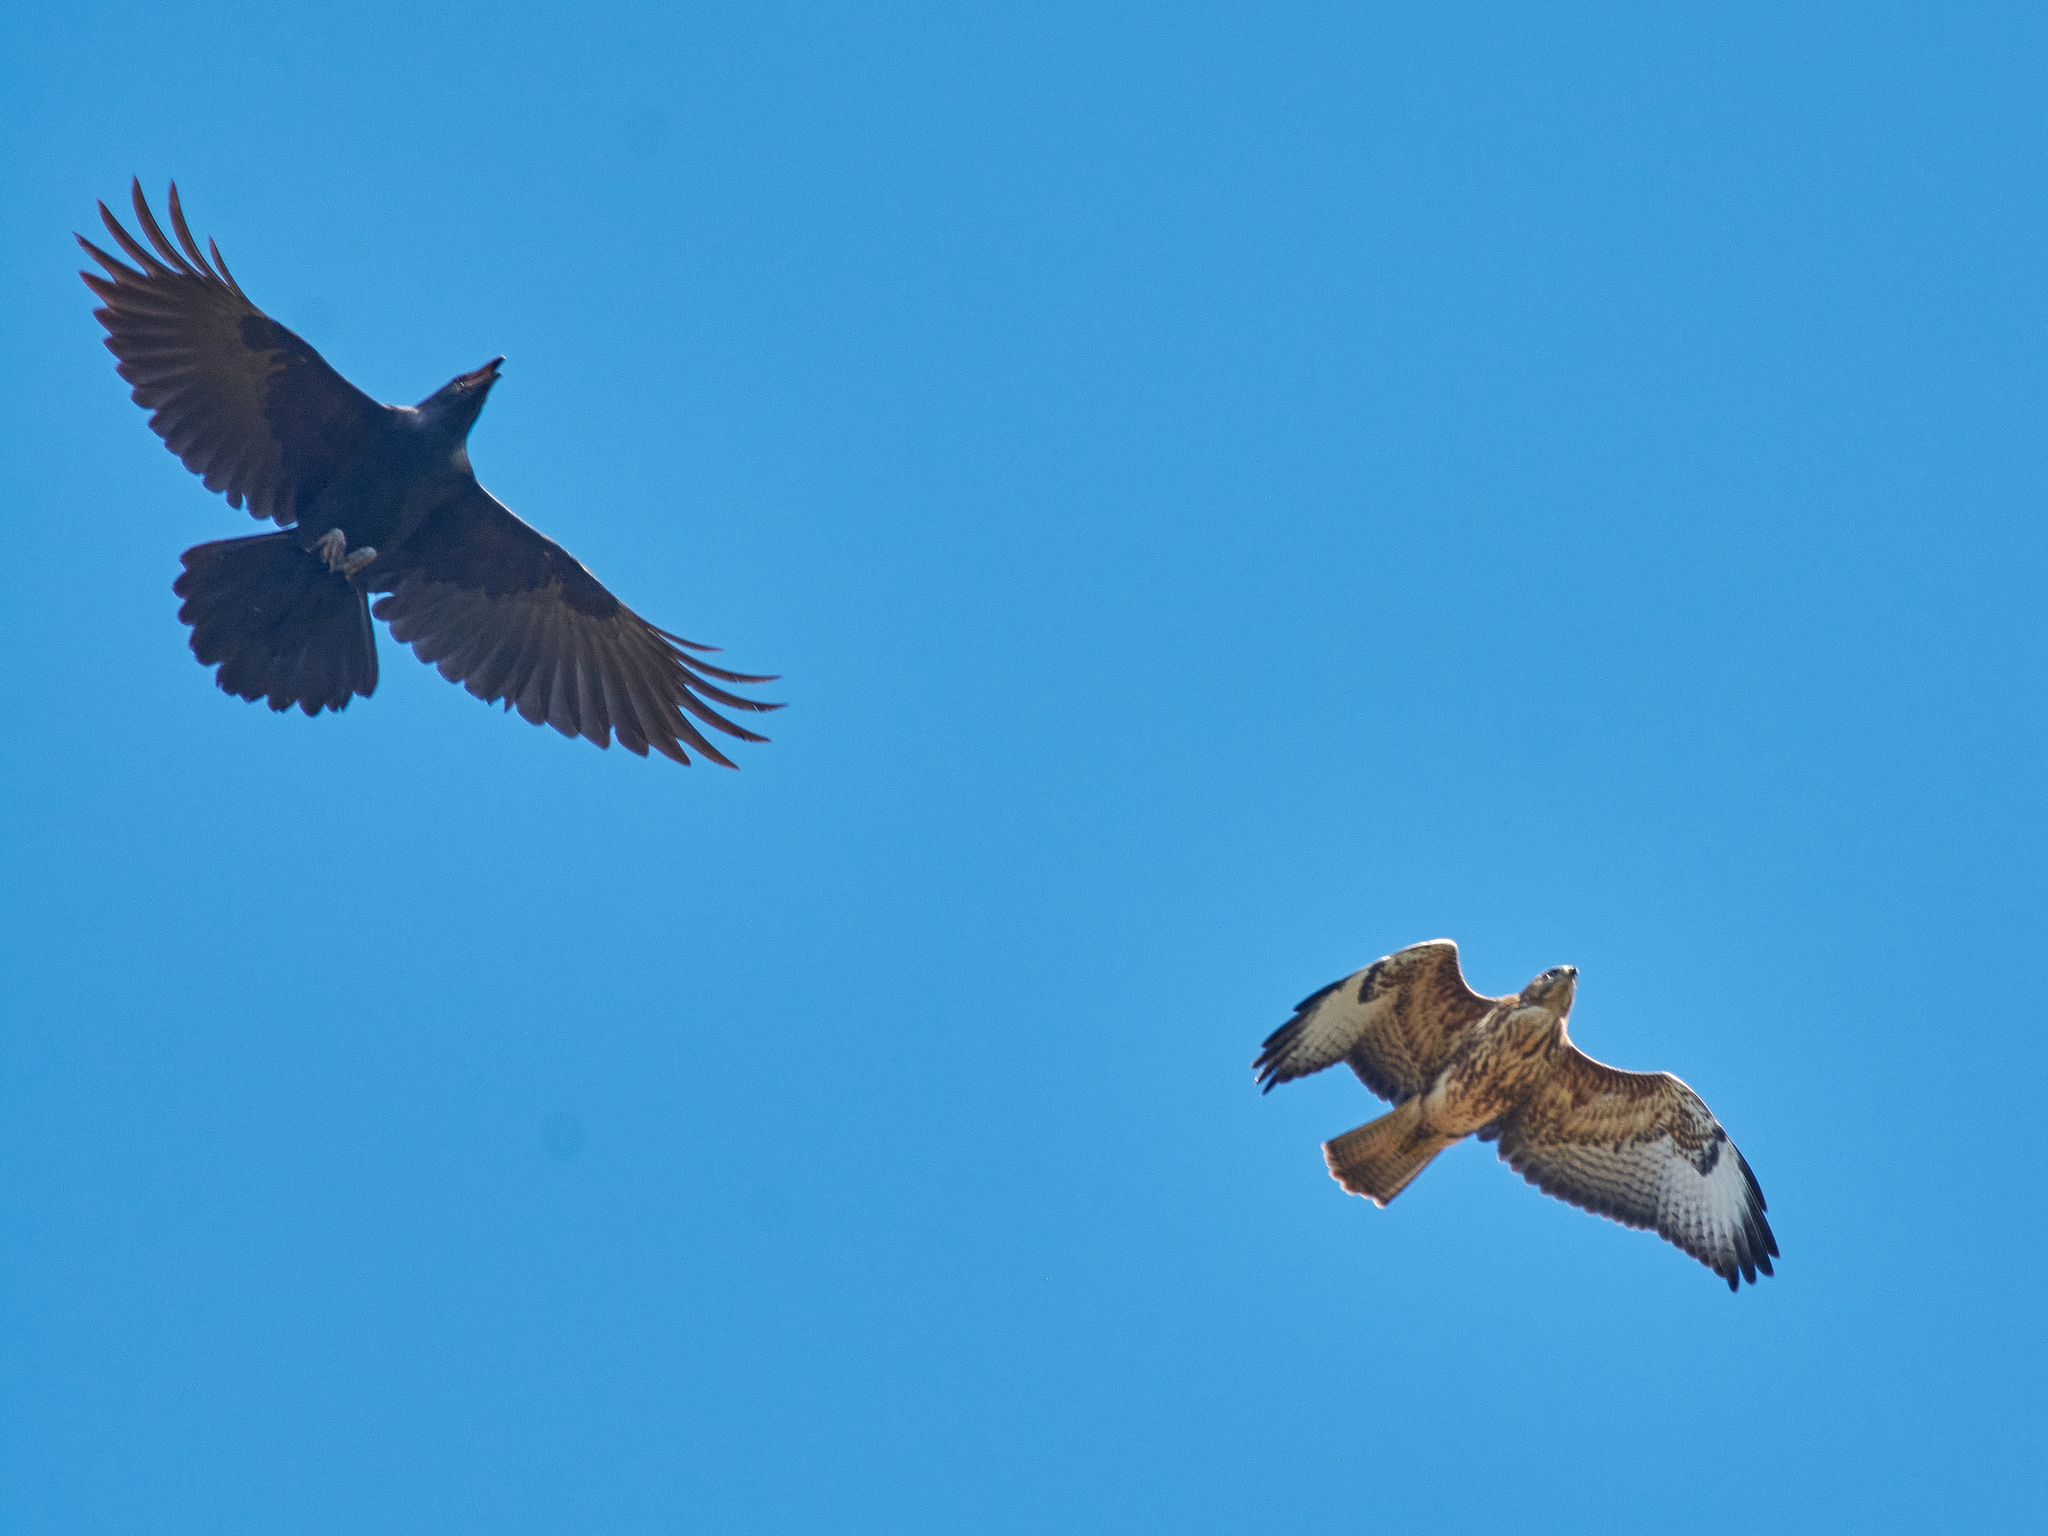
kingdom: Animalia
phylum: Chordata
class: Aves
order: Accipitriformes
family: Accipitridae
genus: Buteo
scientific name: Buteo buteo
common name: Common buzzard
